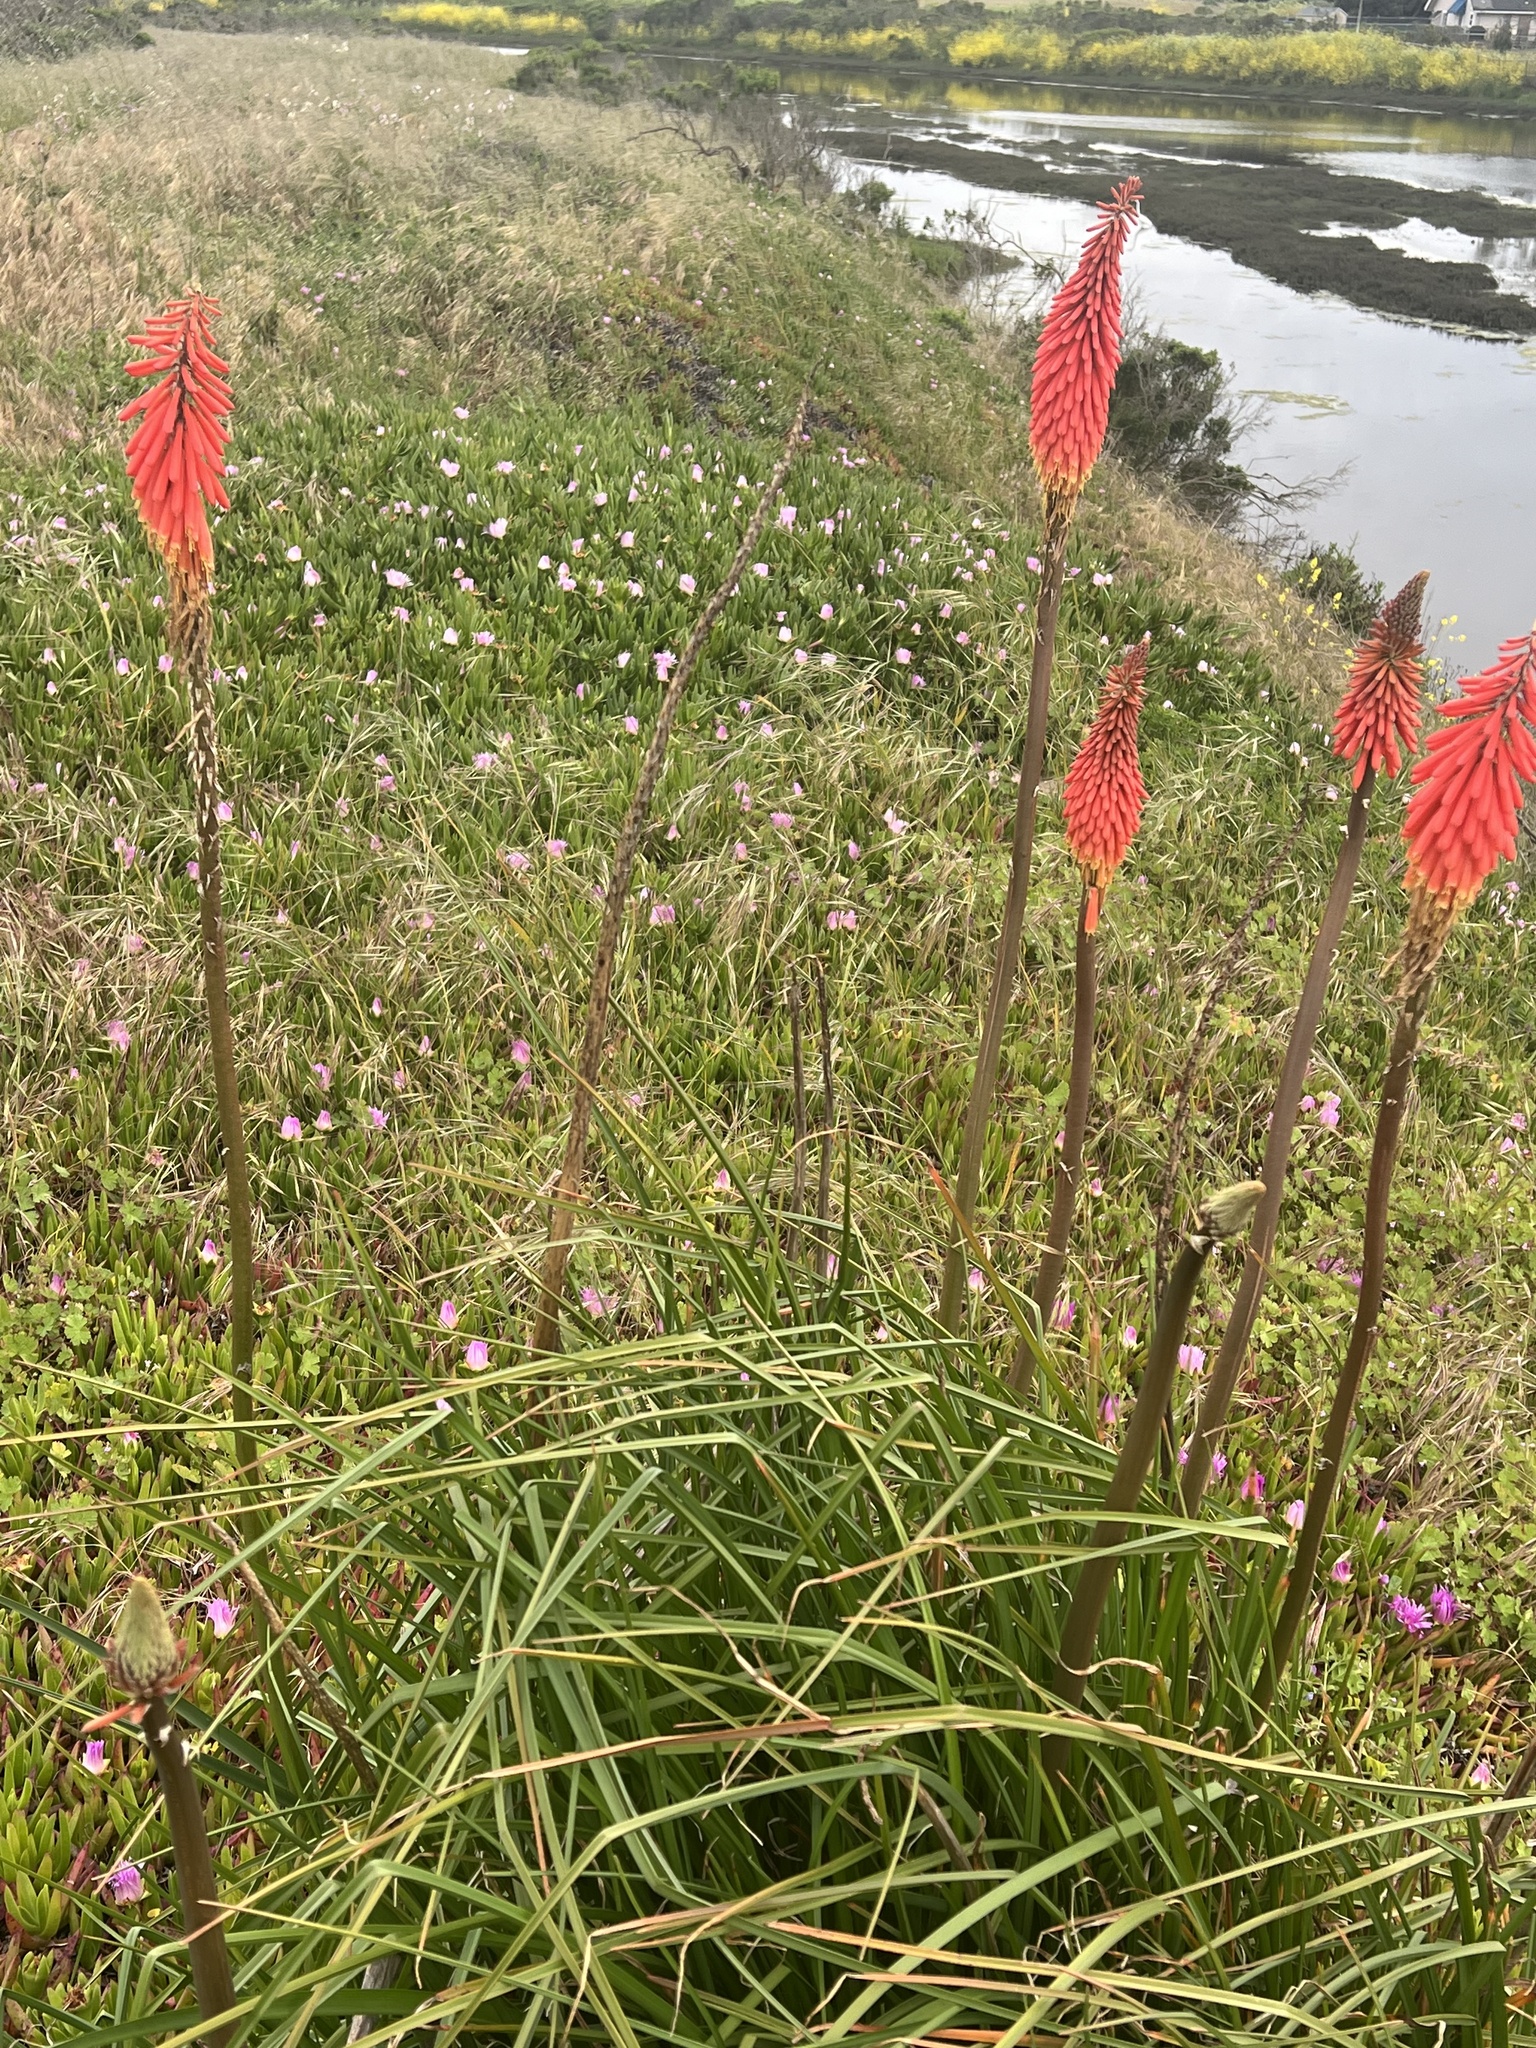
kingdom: Plantae
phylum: Tracheophyta
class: Liliopsida
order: Asparagales
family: Asphodelaceae
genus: Kniphofia
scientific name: Kniphofia uvaria
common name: Red-hot-poker
